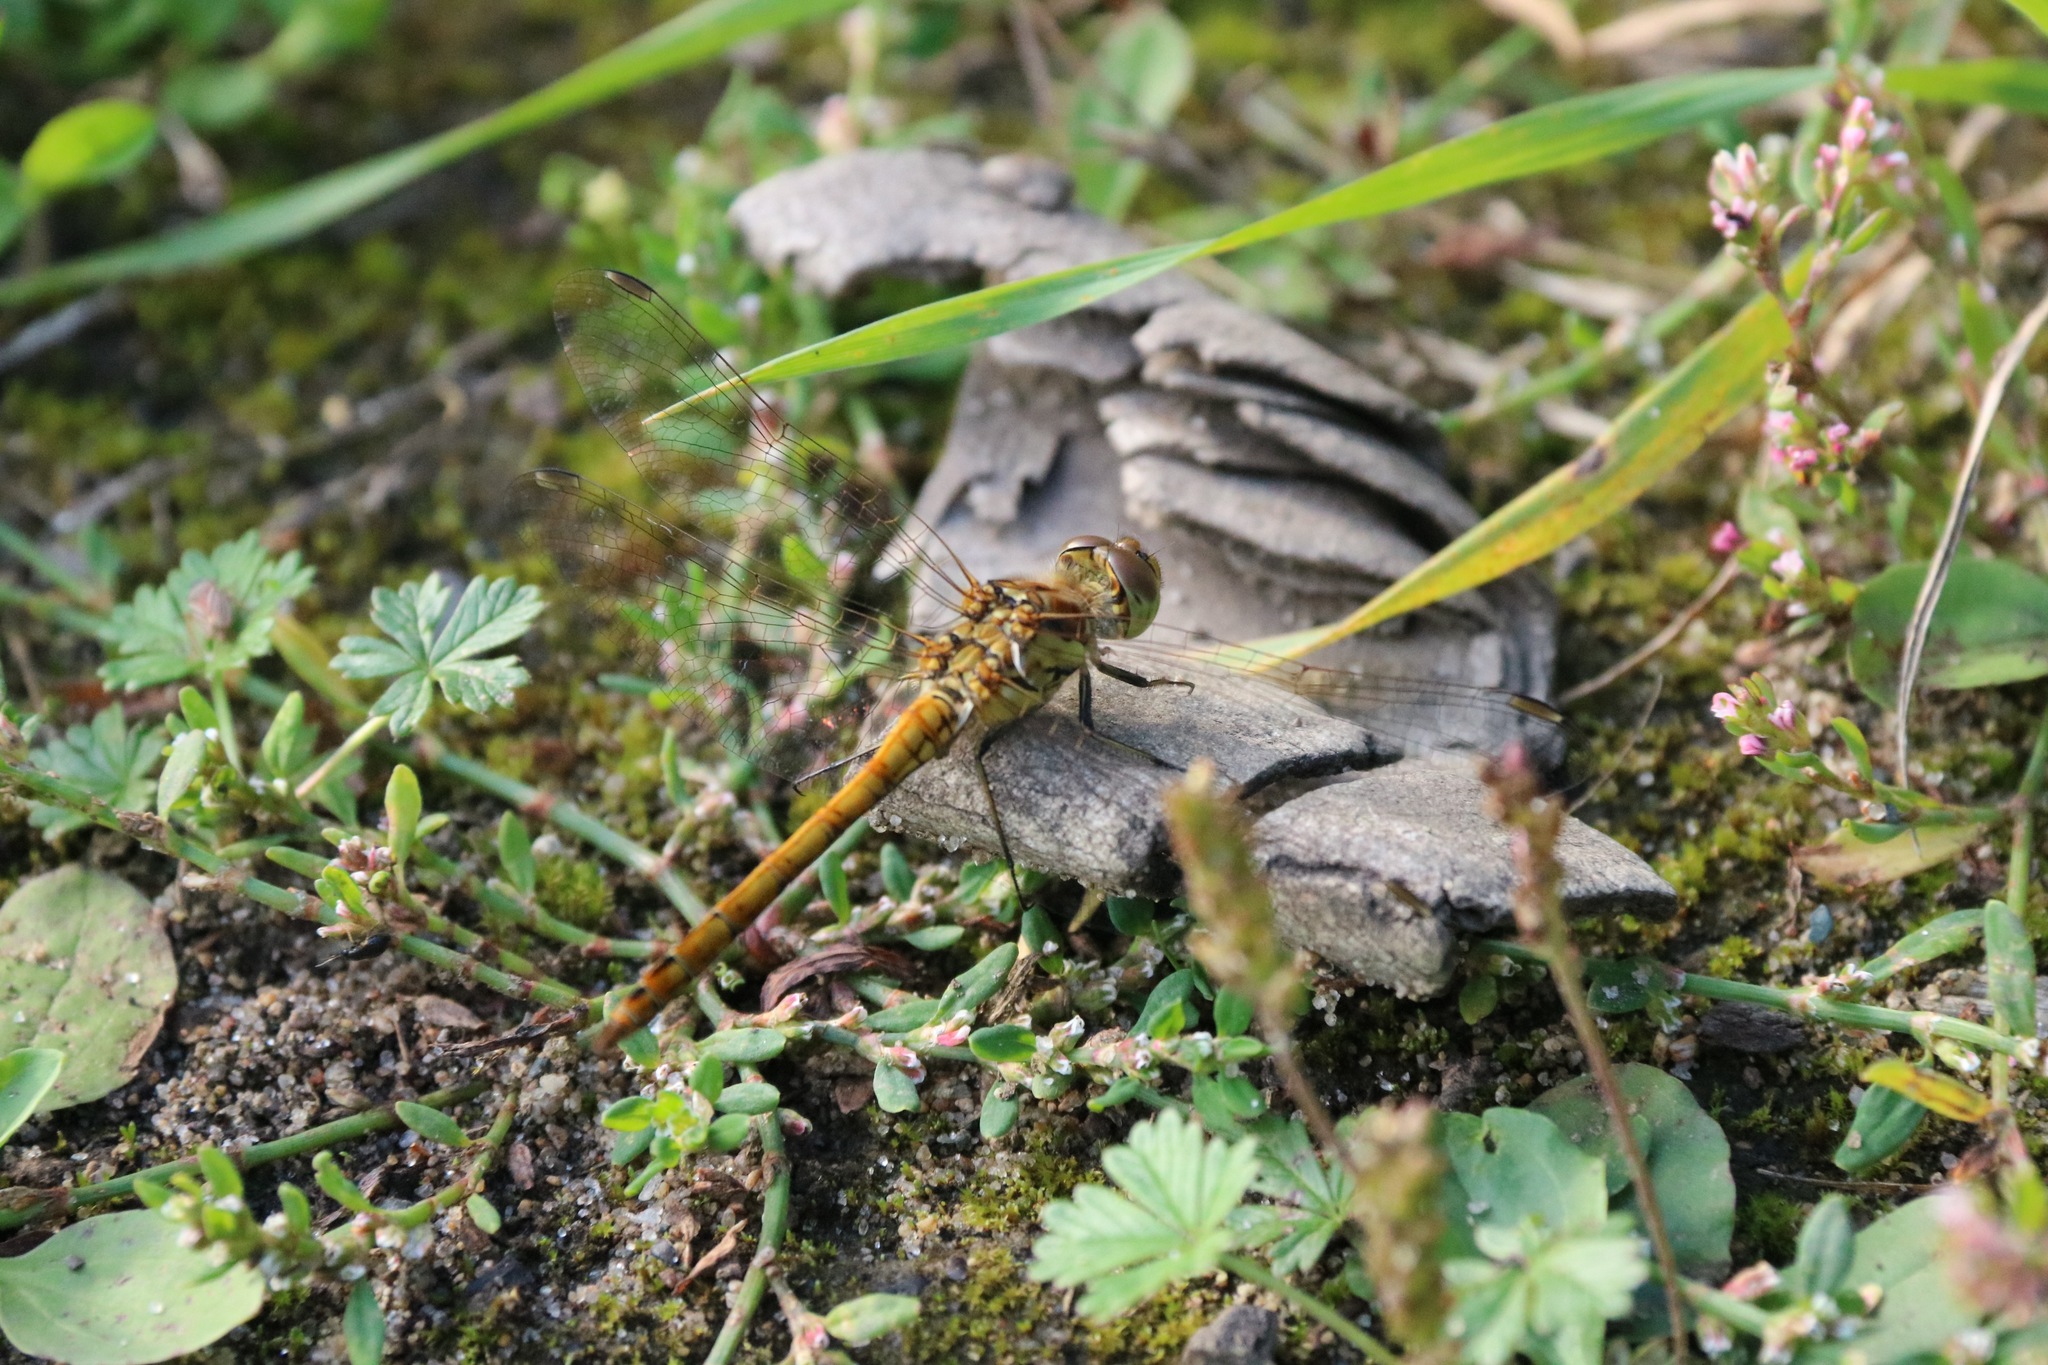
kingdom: Animalia
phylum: Arthropoda
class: Insecta
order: Odonata
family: Libellulidae
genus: Sympetrum
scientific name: Sympetrum vulgatum
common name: Vagrant darter
